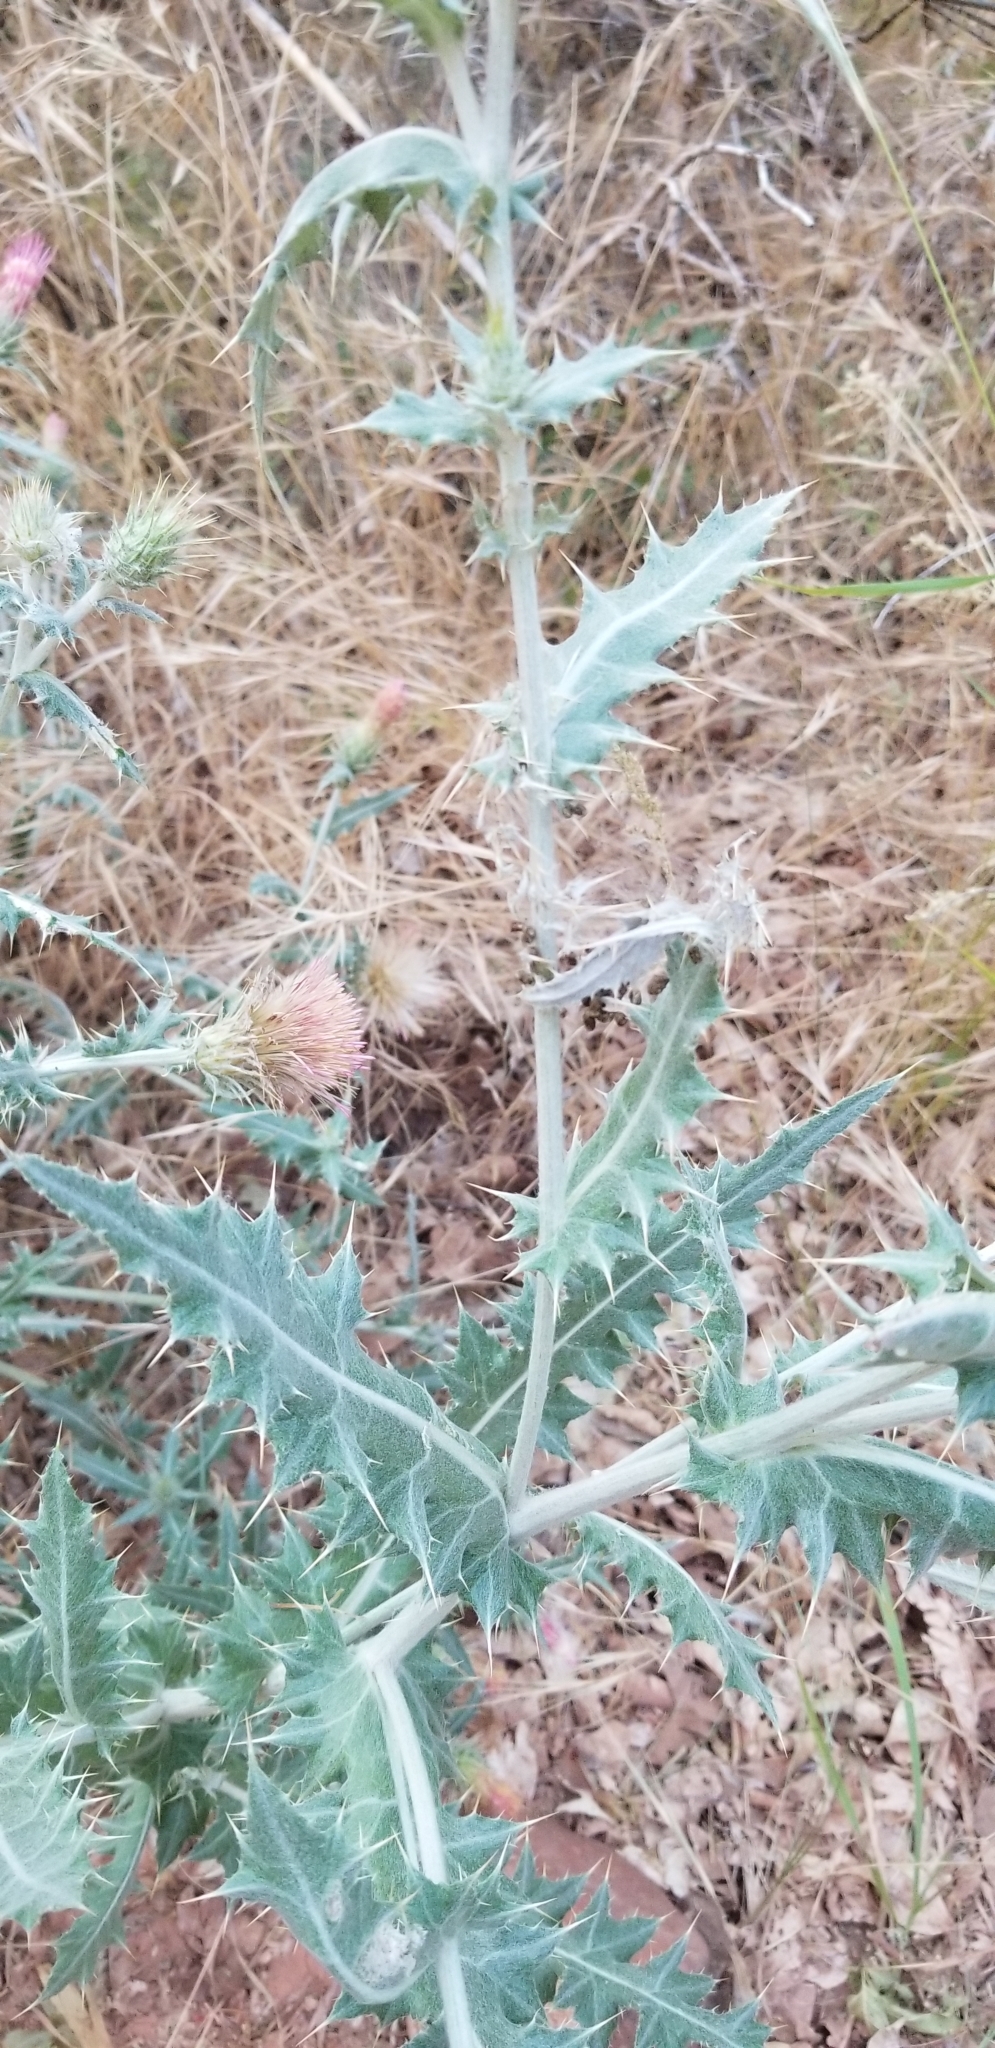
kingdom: Plantae
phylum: Tracheophyta
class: Magnoliopsida
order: Asterales
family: Asteraceae
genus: Cirsium
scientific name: Cirsium arizonicum
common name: Arizona thistle
